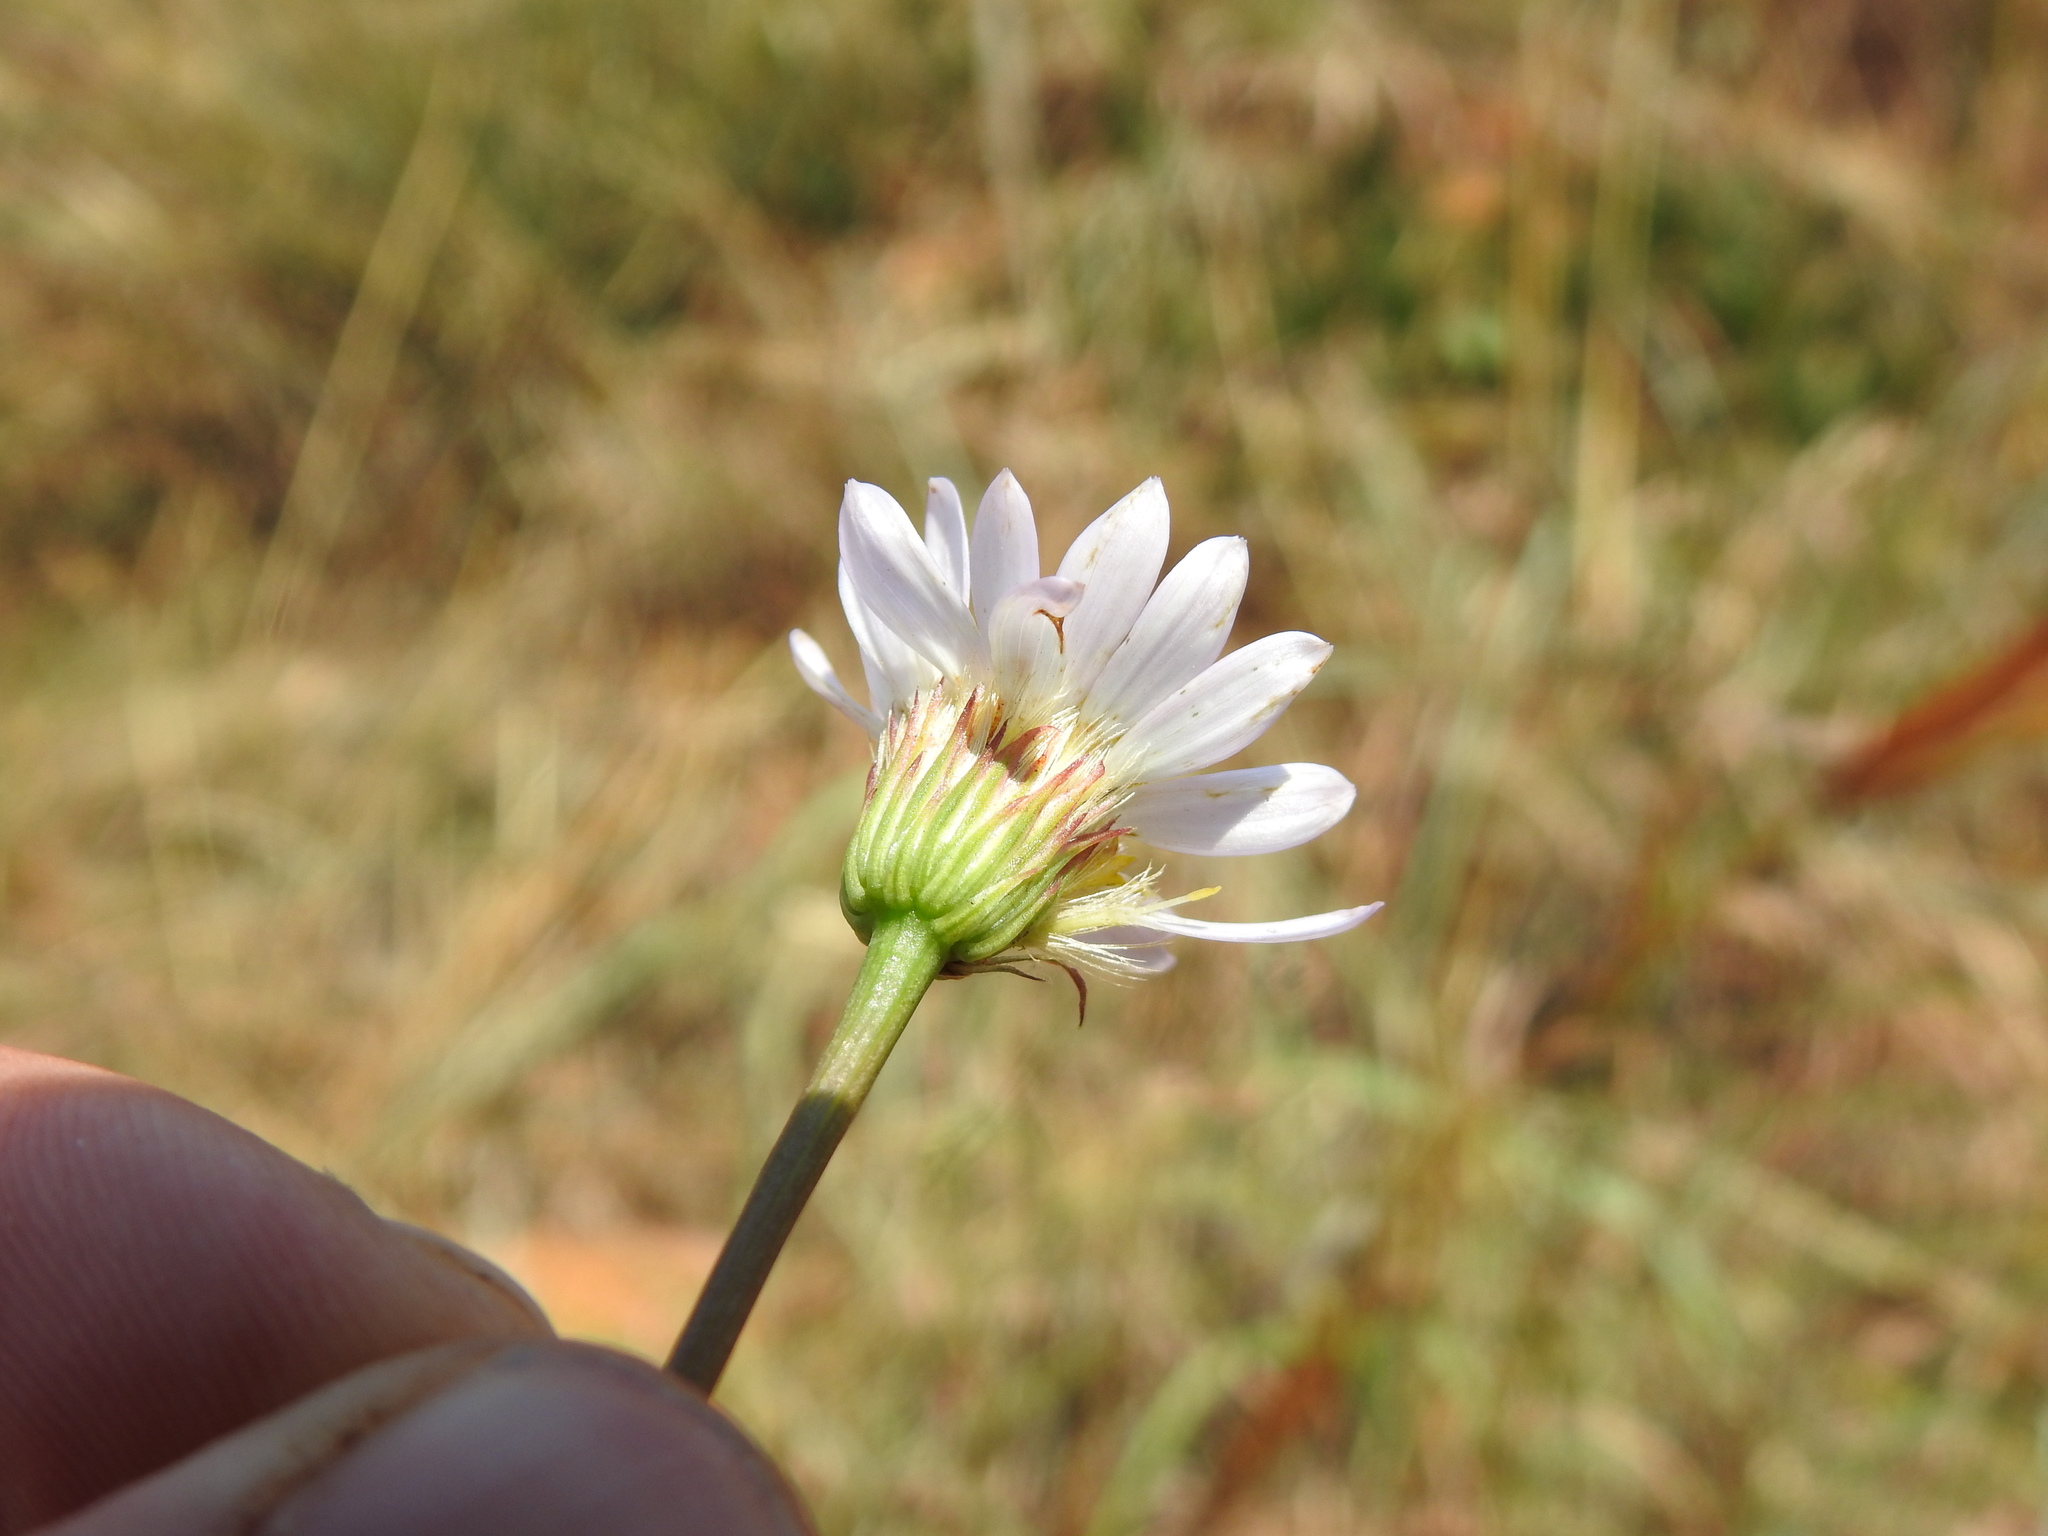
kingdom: Plantae
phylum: Tracheophyta
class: Magnoliopsida
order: Asterales
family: Asteraceae
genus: Afroaster
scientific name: Afroaster serrulatus
